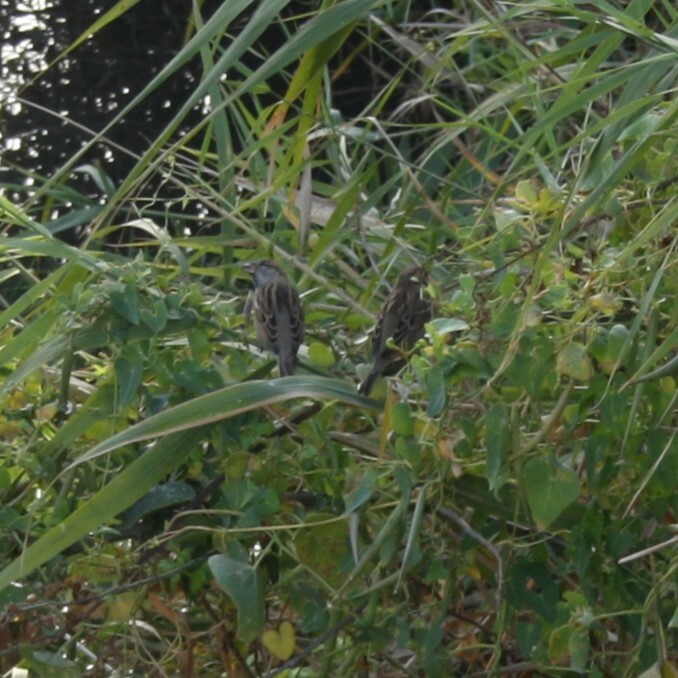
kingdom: Animalia
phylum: Chordata
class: Aves
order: Passeriformes
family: Passeridae
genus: Passer
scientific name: Passer domesticus
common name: House sparrow
